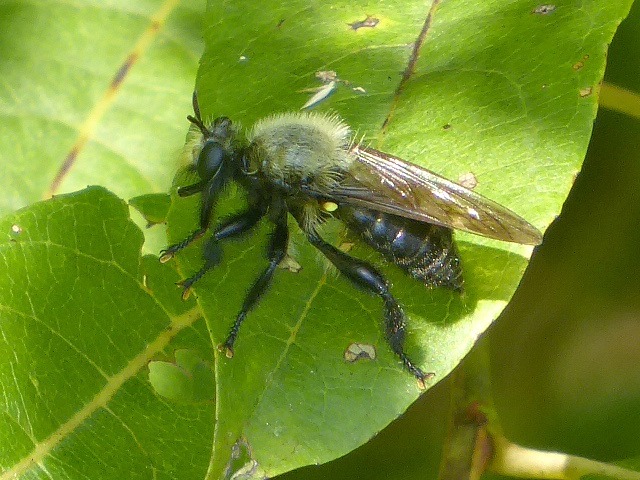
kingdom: Animalia
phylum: Arthropoda
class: Insecta
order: Diptera
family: Asilidae
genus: Laphria
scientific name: Laphria flavicollis
